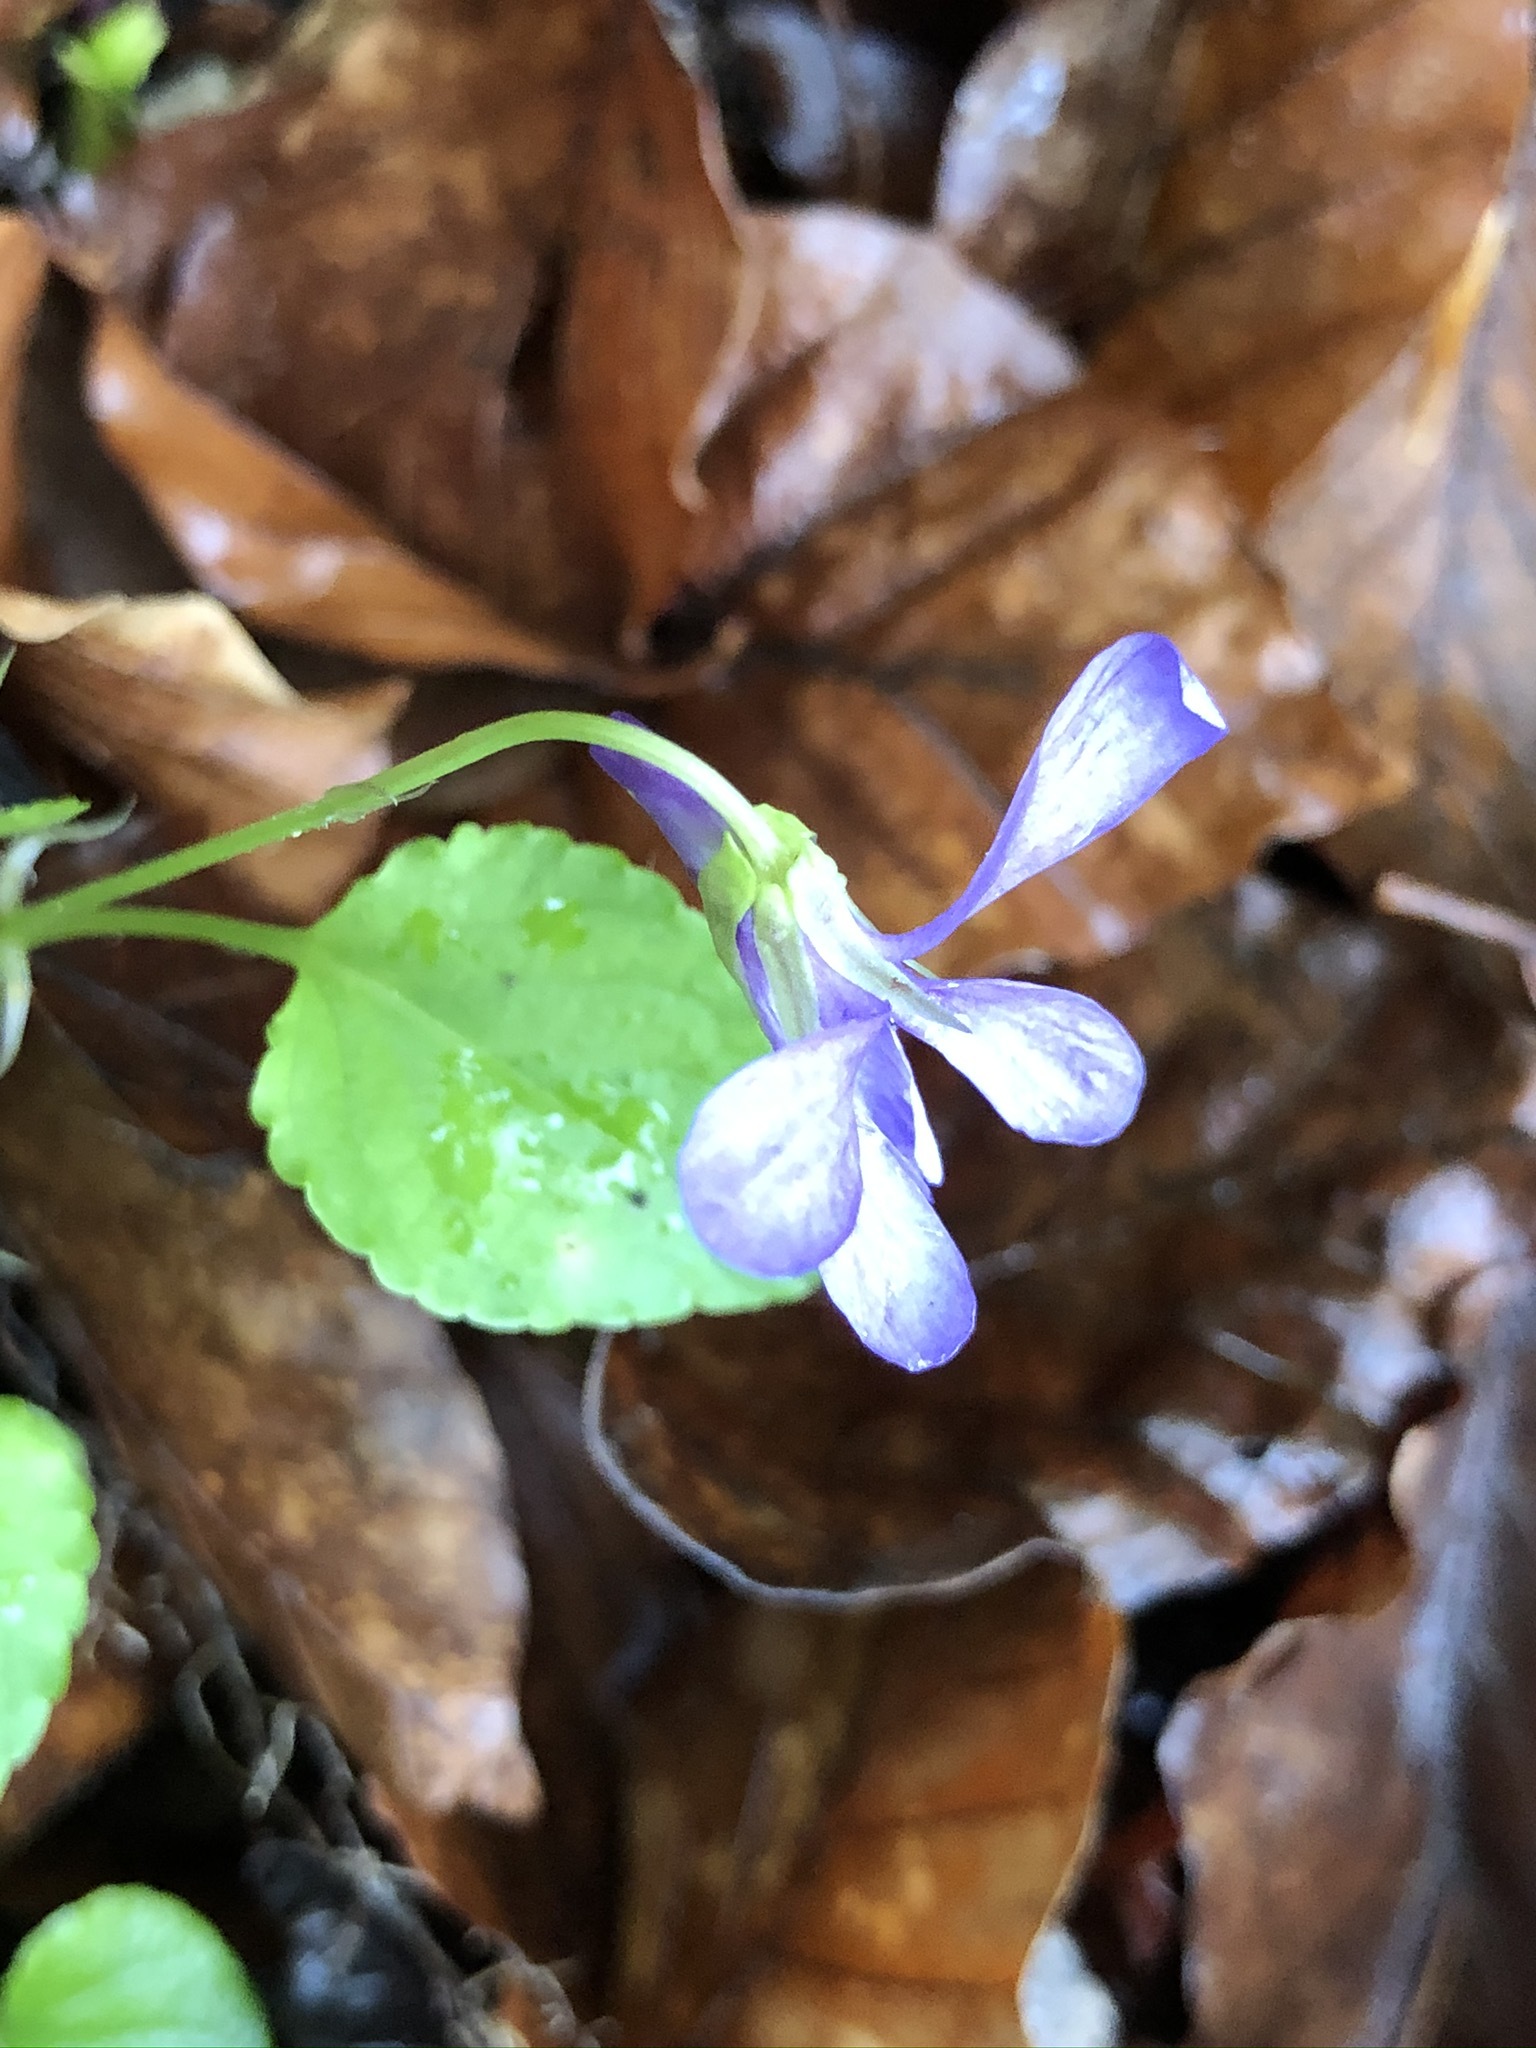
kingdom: Plantae
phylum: Tracheophyta
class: Magnoliopsida
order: Malpighiales
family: Violaceae
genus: Viola
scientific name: Viola reichenbachiana
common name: Early dog-violet
